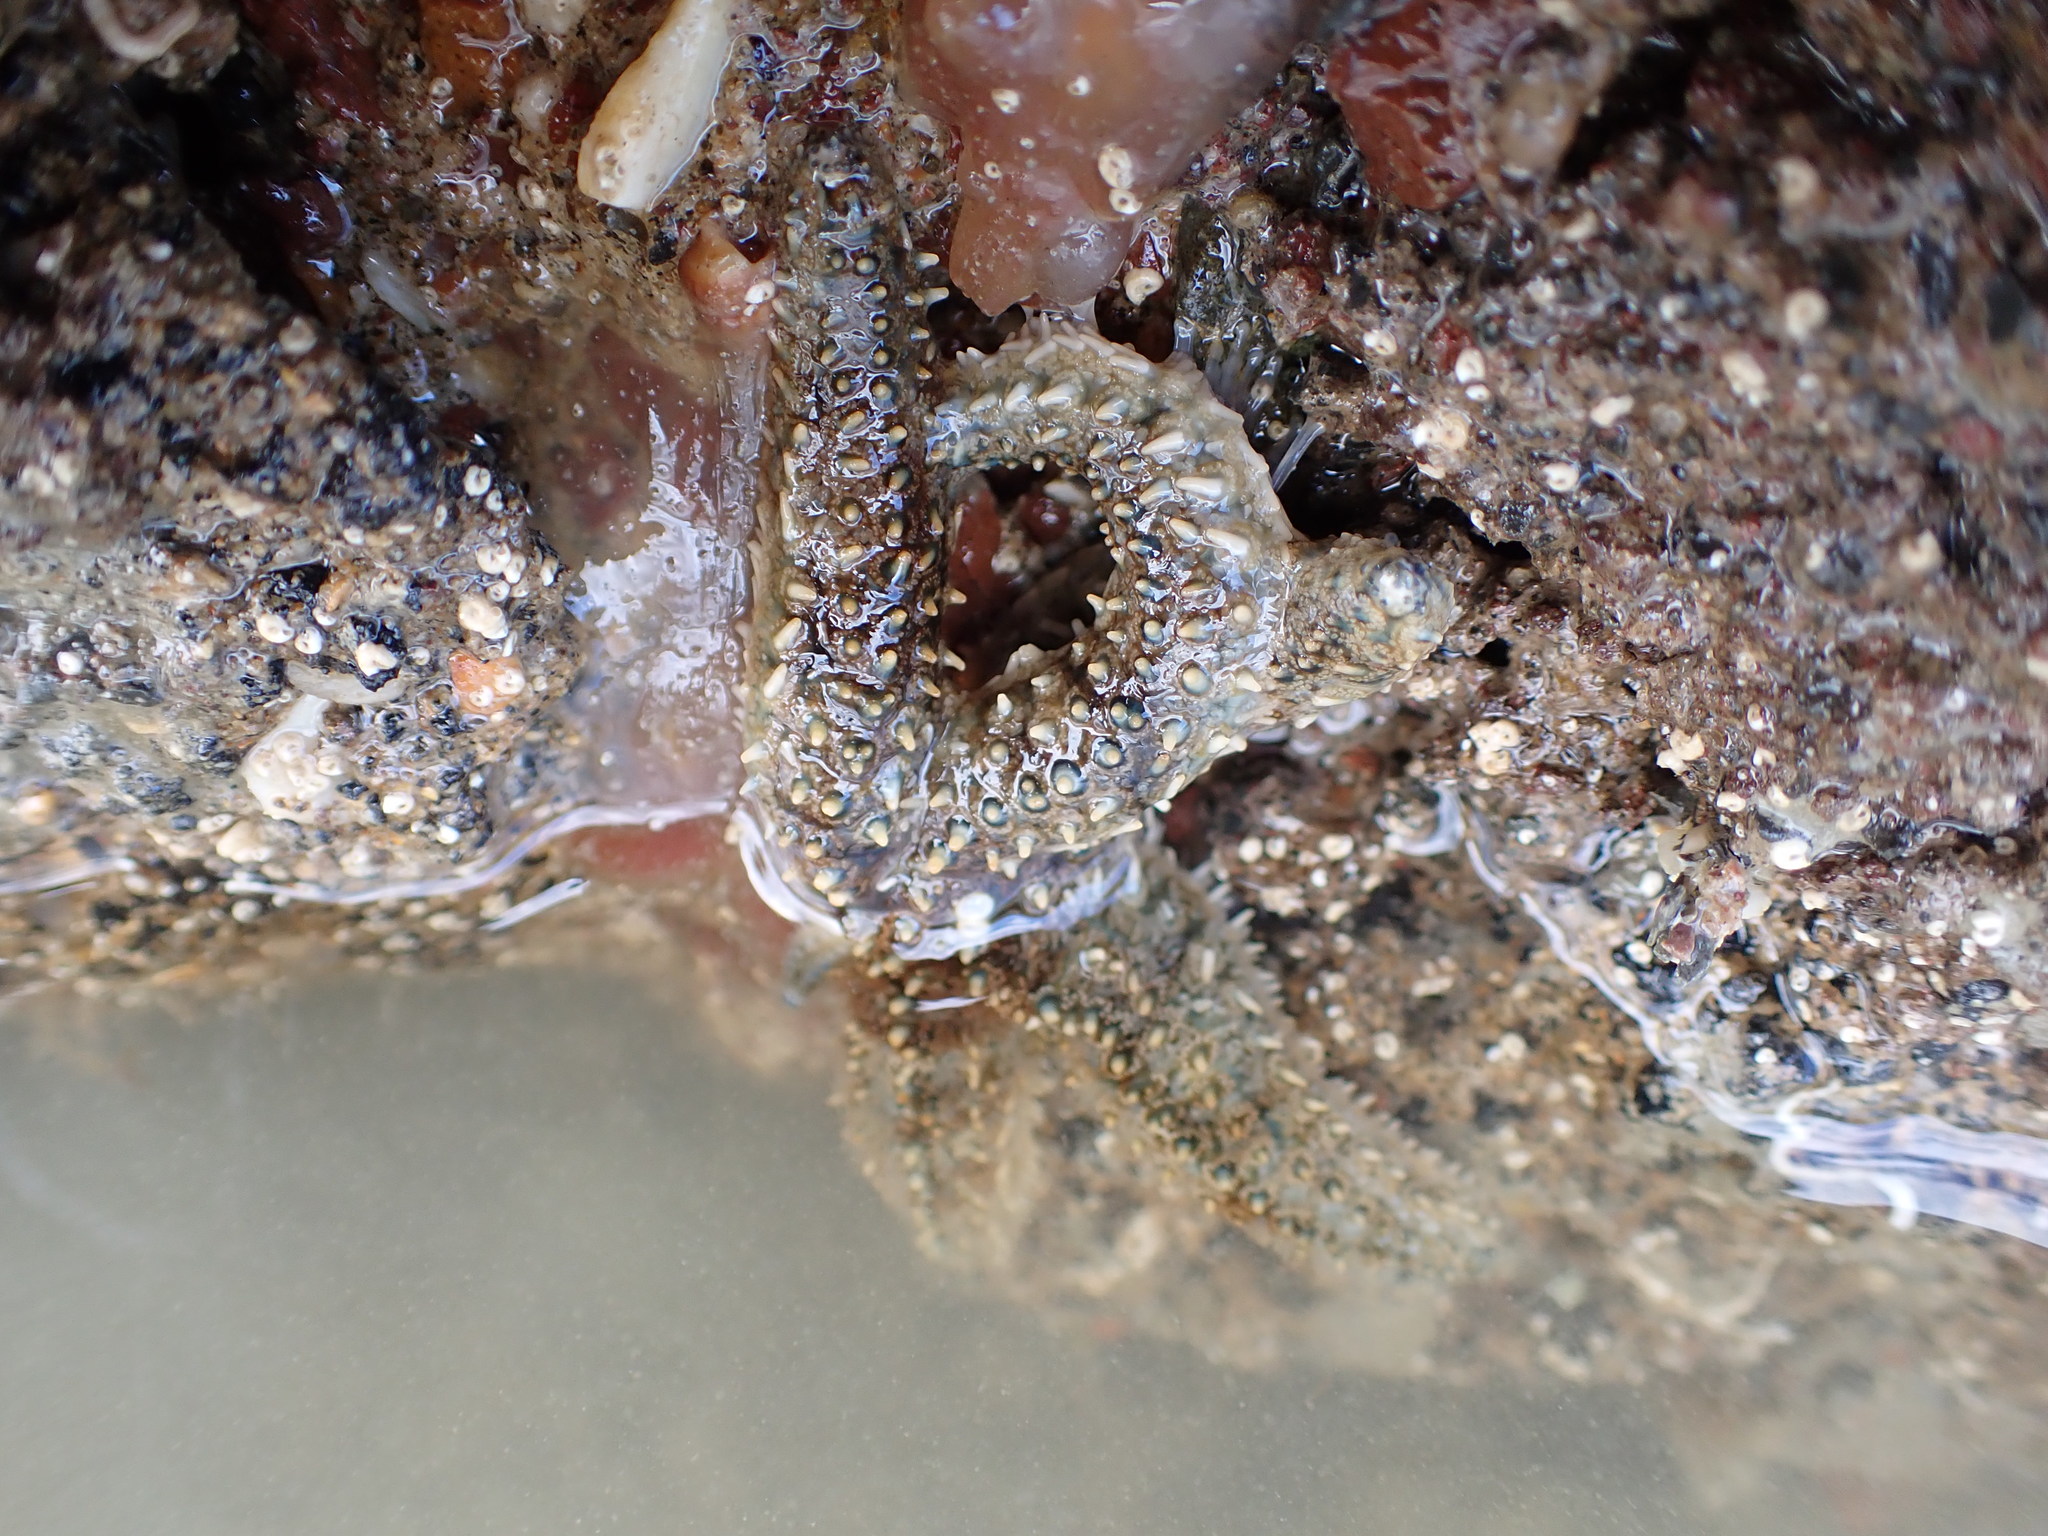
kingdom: Animalia
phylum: Echinodermata
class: Asteroidea
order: Forcipulatida
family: Asteriidae
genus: Coscinasterias
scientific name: Coscinasterias muricata
